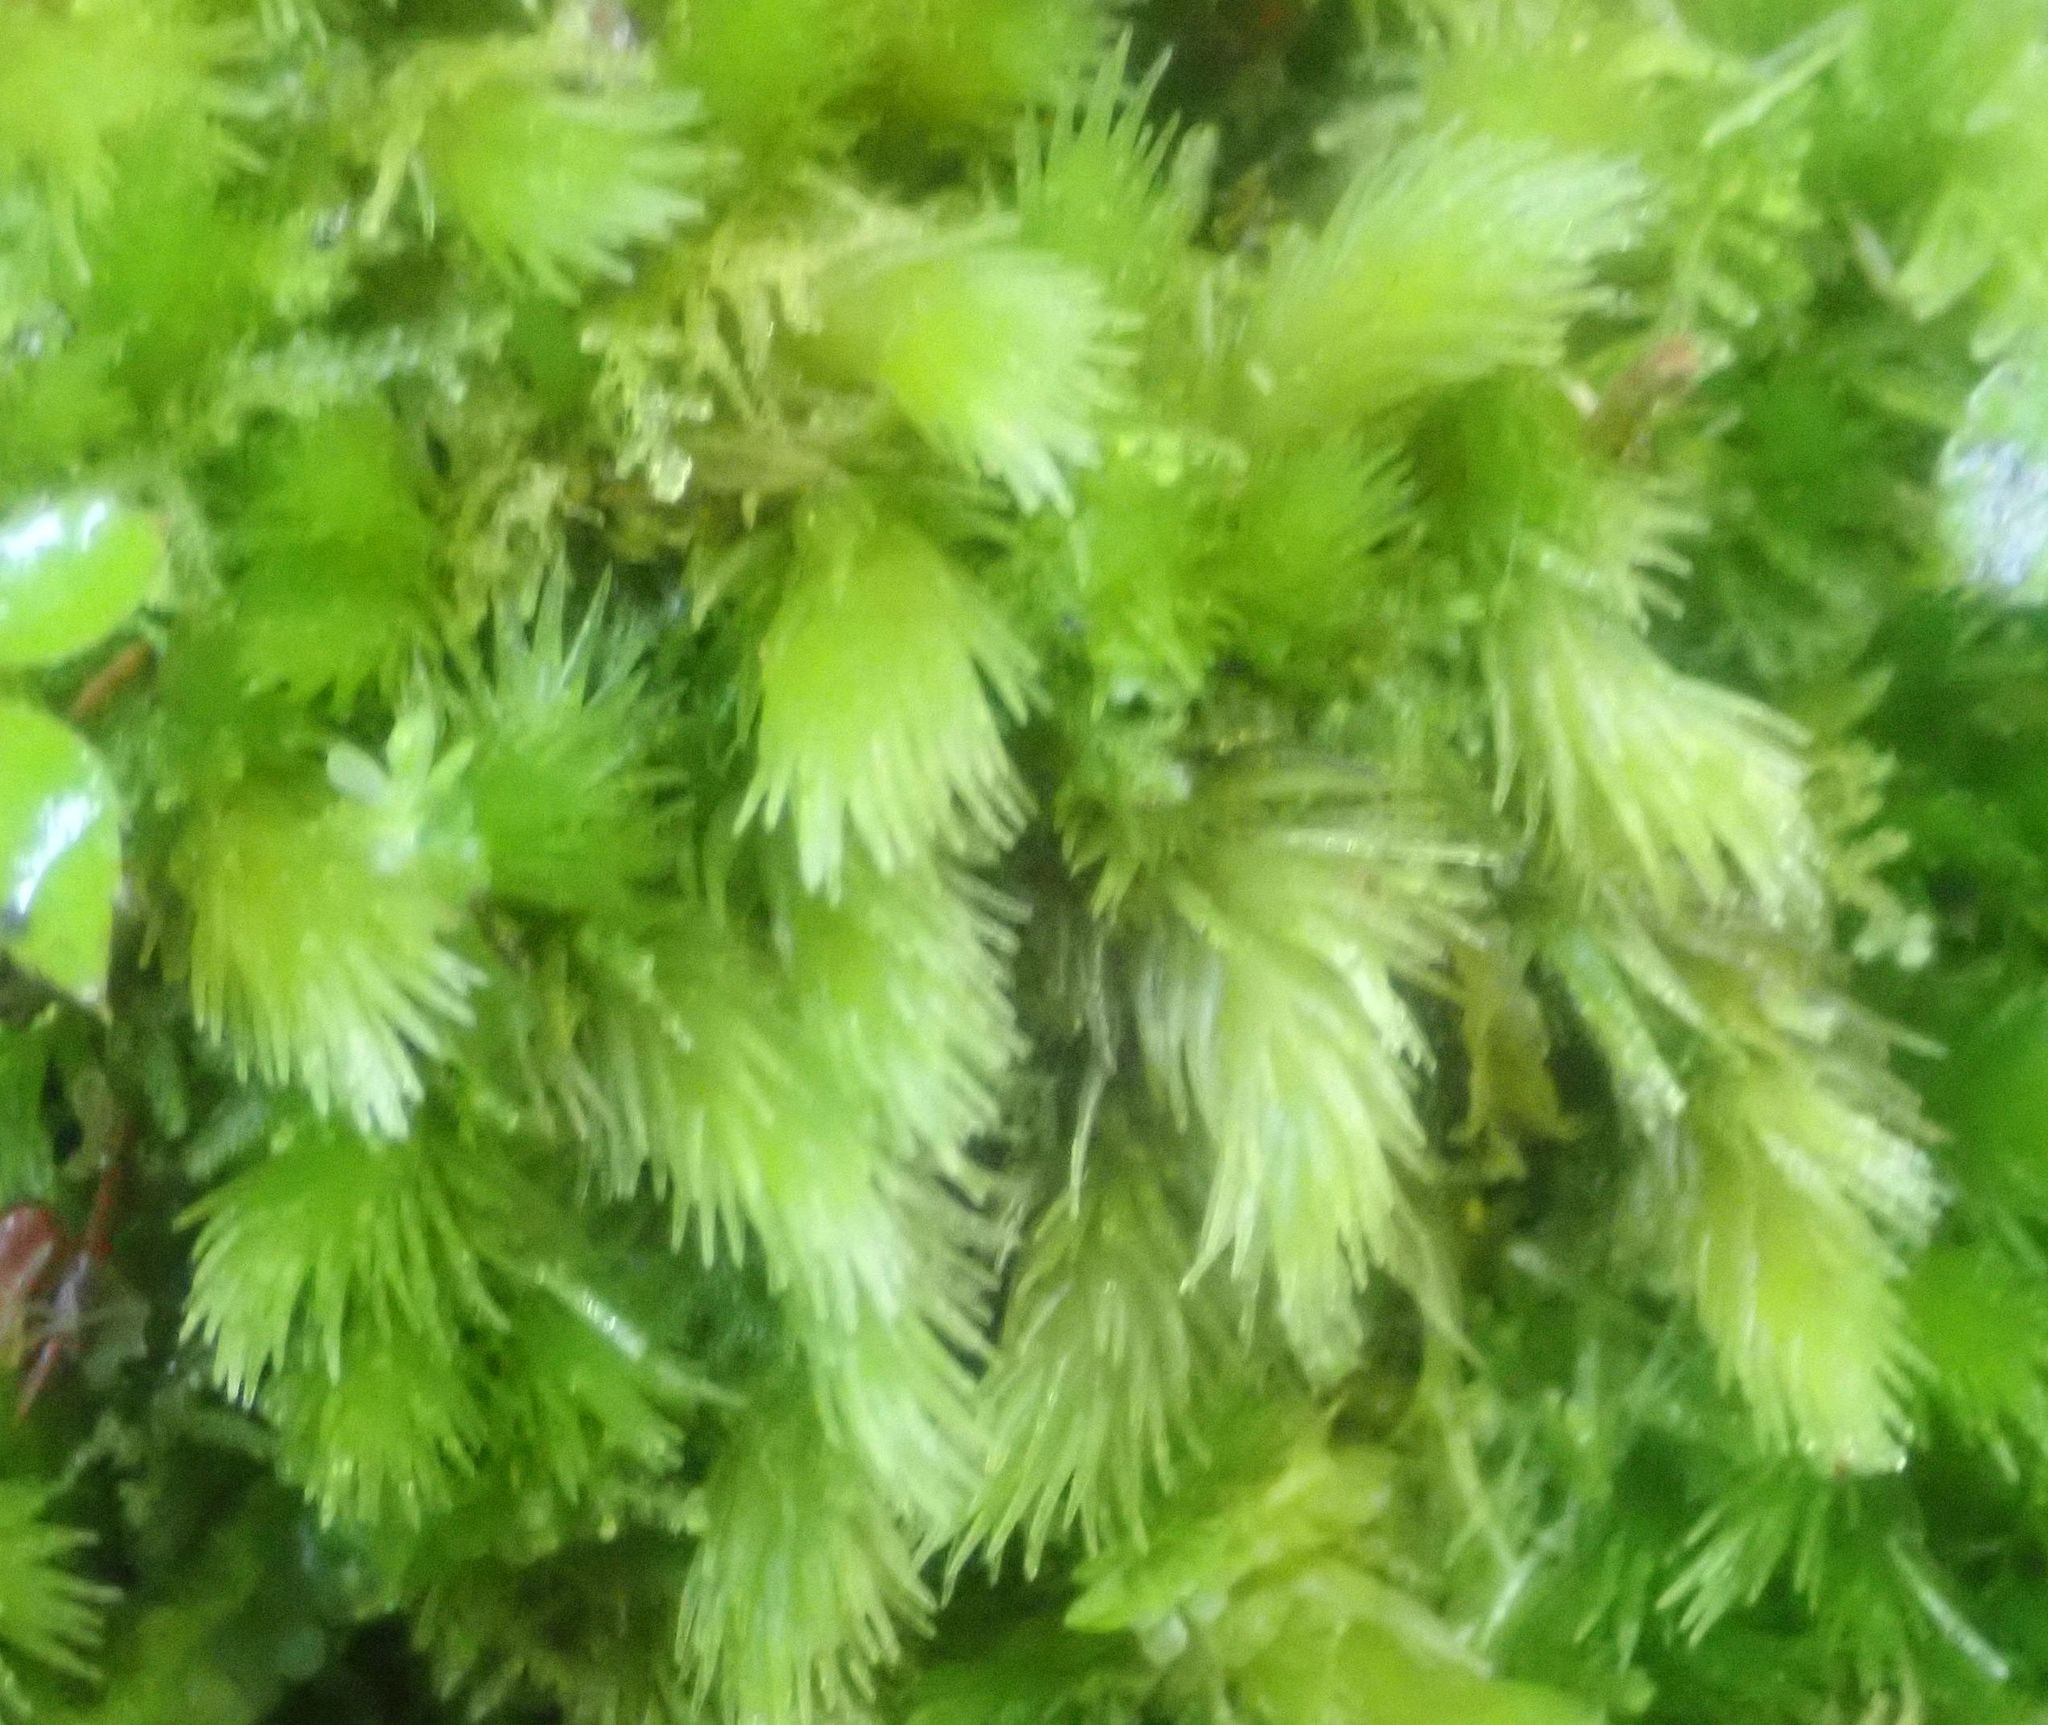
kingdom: Plantae
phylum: Bryophyta
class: Bryopsida
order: Dicranales
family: Leucobryaceae
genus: Leucobryum
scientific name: Leucobryum javense
